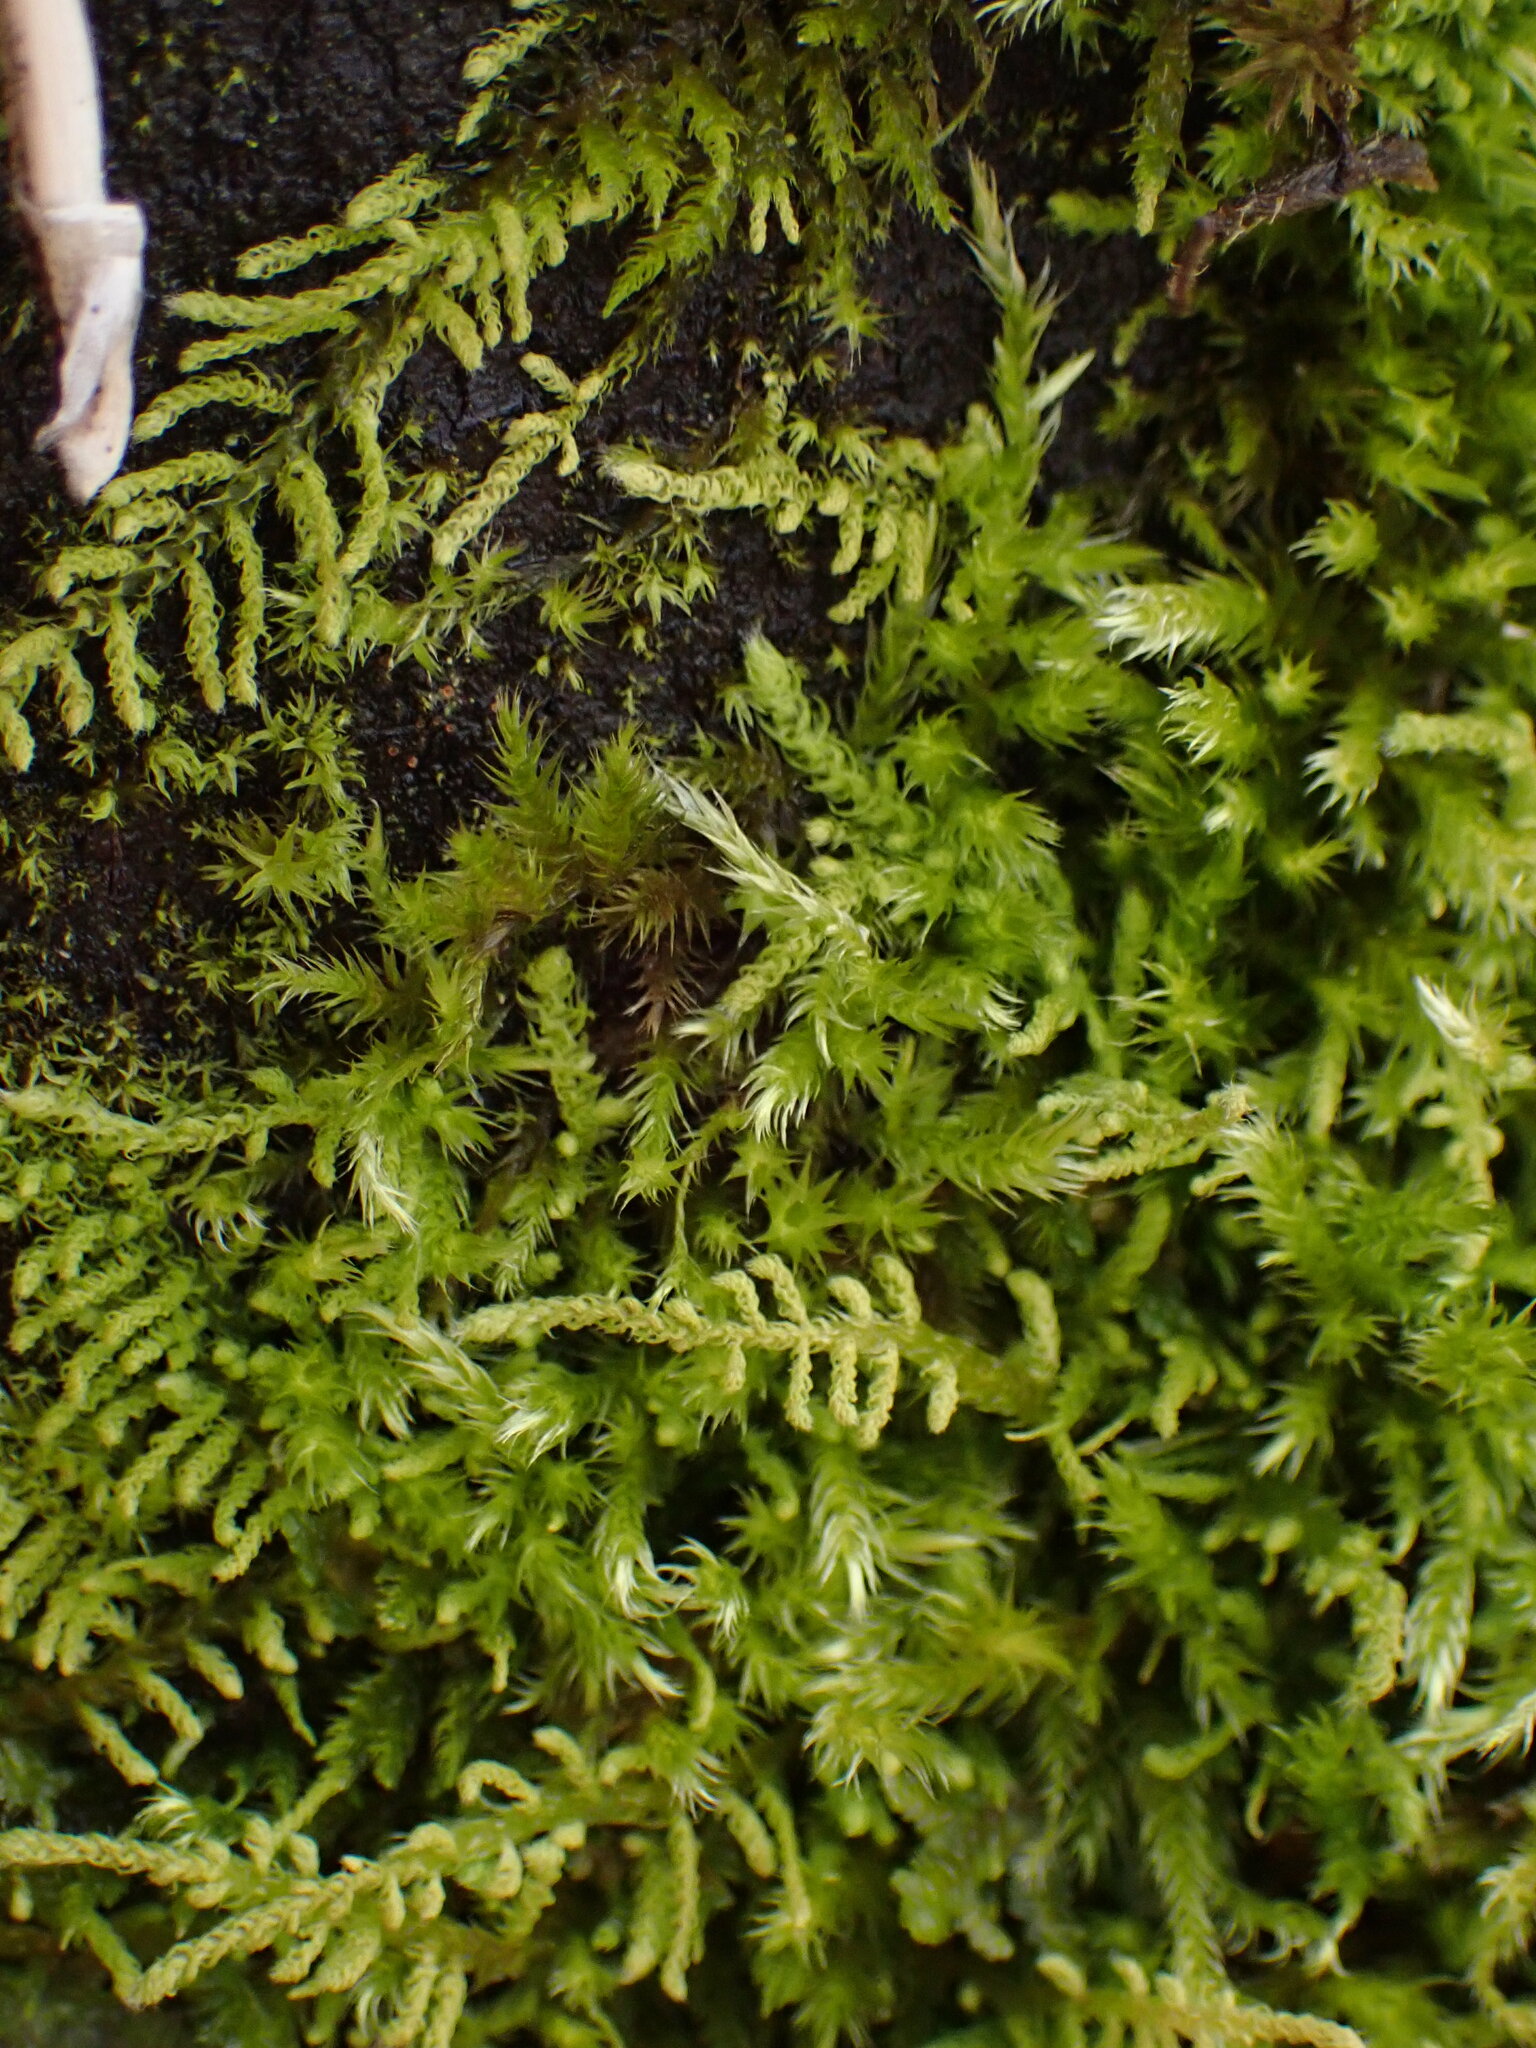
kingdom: Plantae
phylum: Bryophyta
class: Bryopsida
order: Hypnales
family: Brachytheciaceae
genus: Claopodium
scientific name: Claopodium crispifolium
